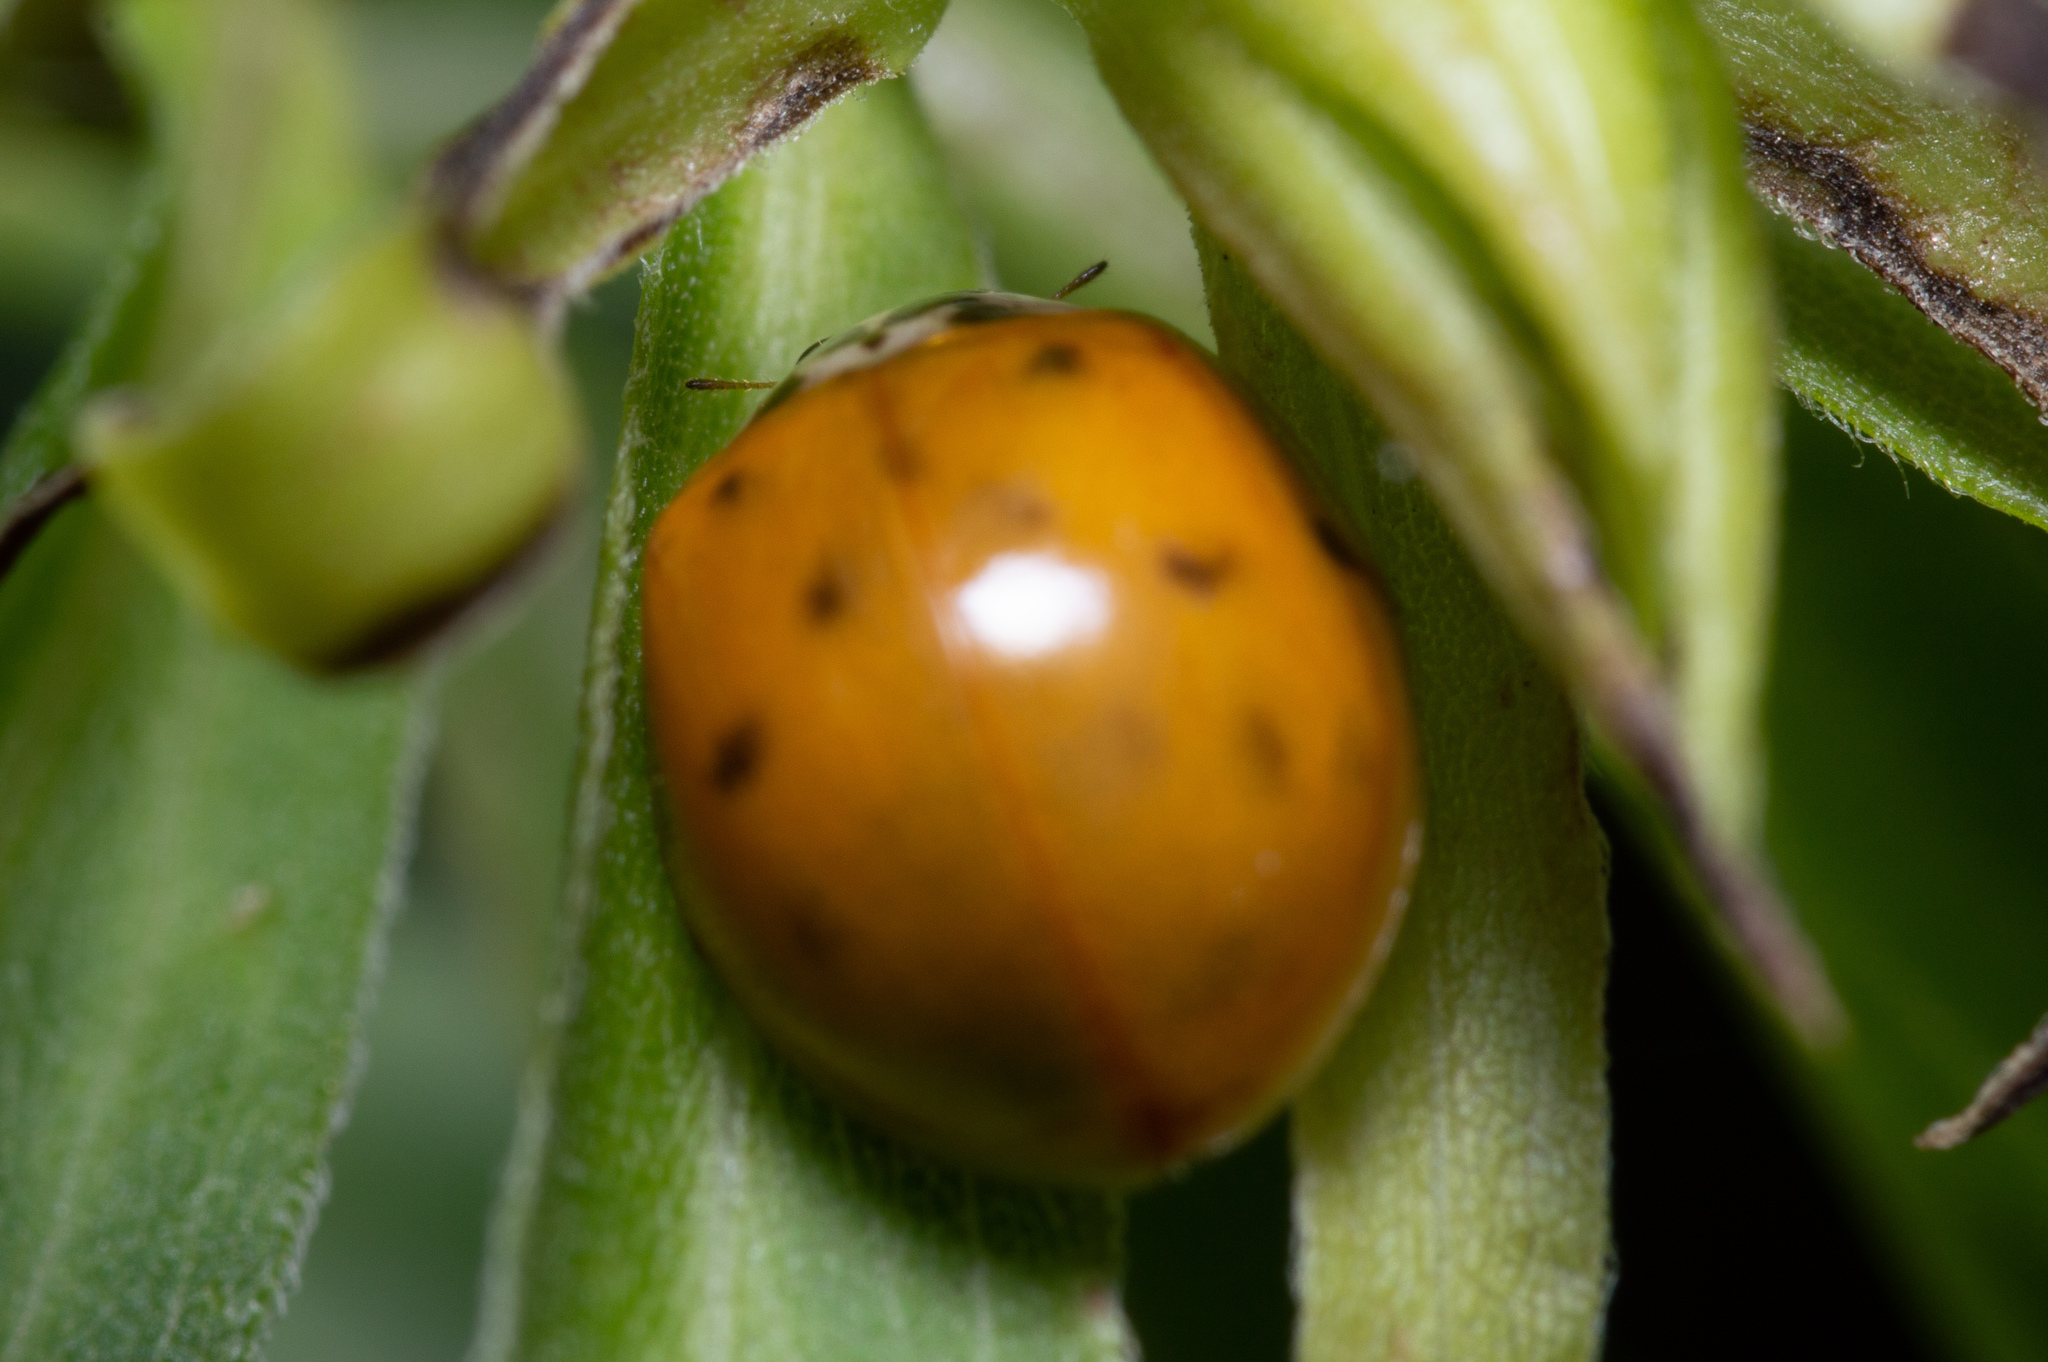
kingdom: Animalia
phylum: Arthropoda
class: Insecta
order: Coleoptera
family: Coccinellidae
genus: Harmonia
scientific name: Harmonia axyridis
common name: Harlequin ladybird
